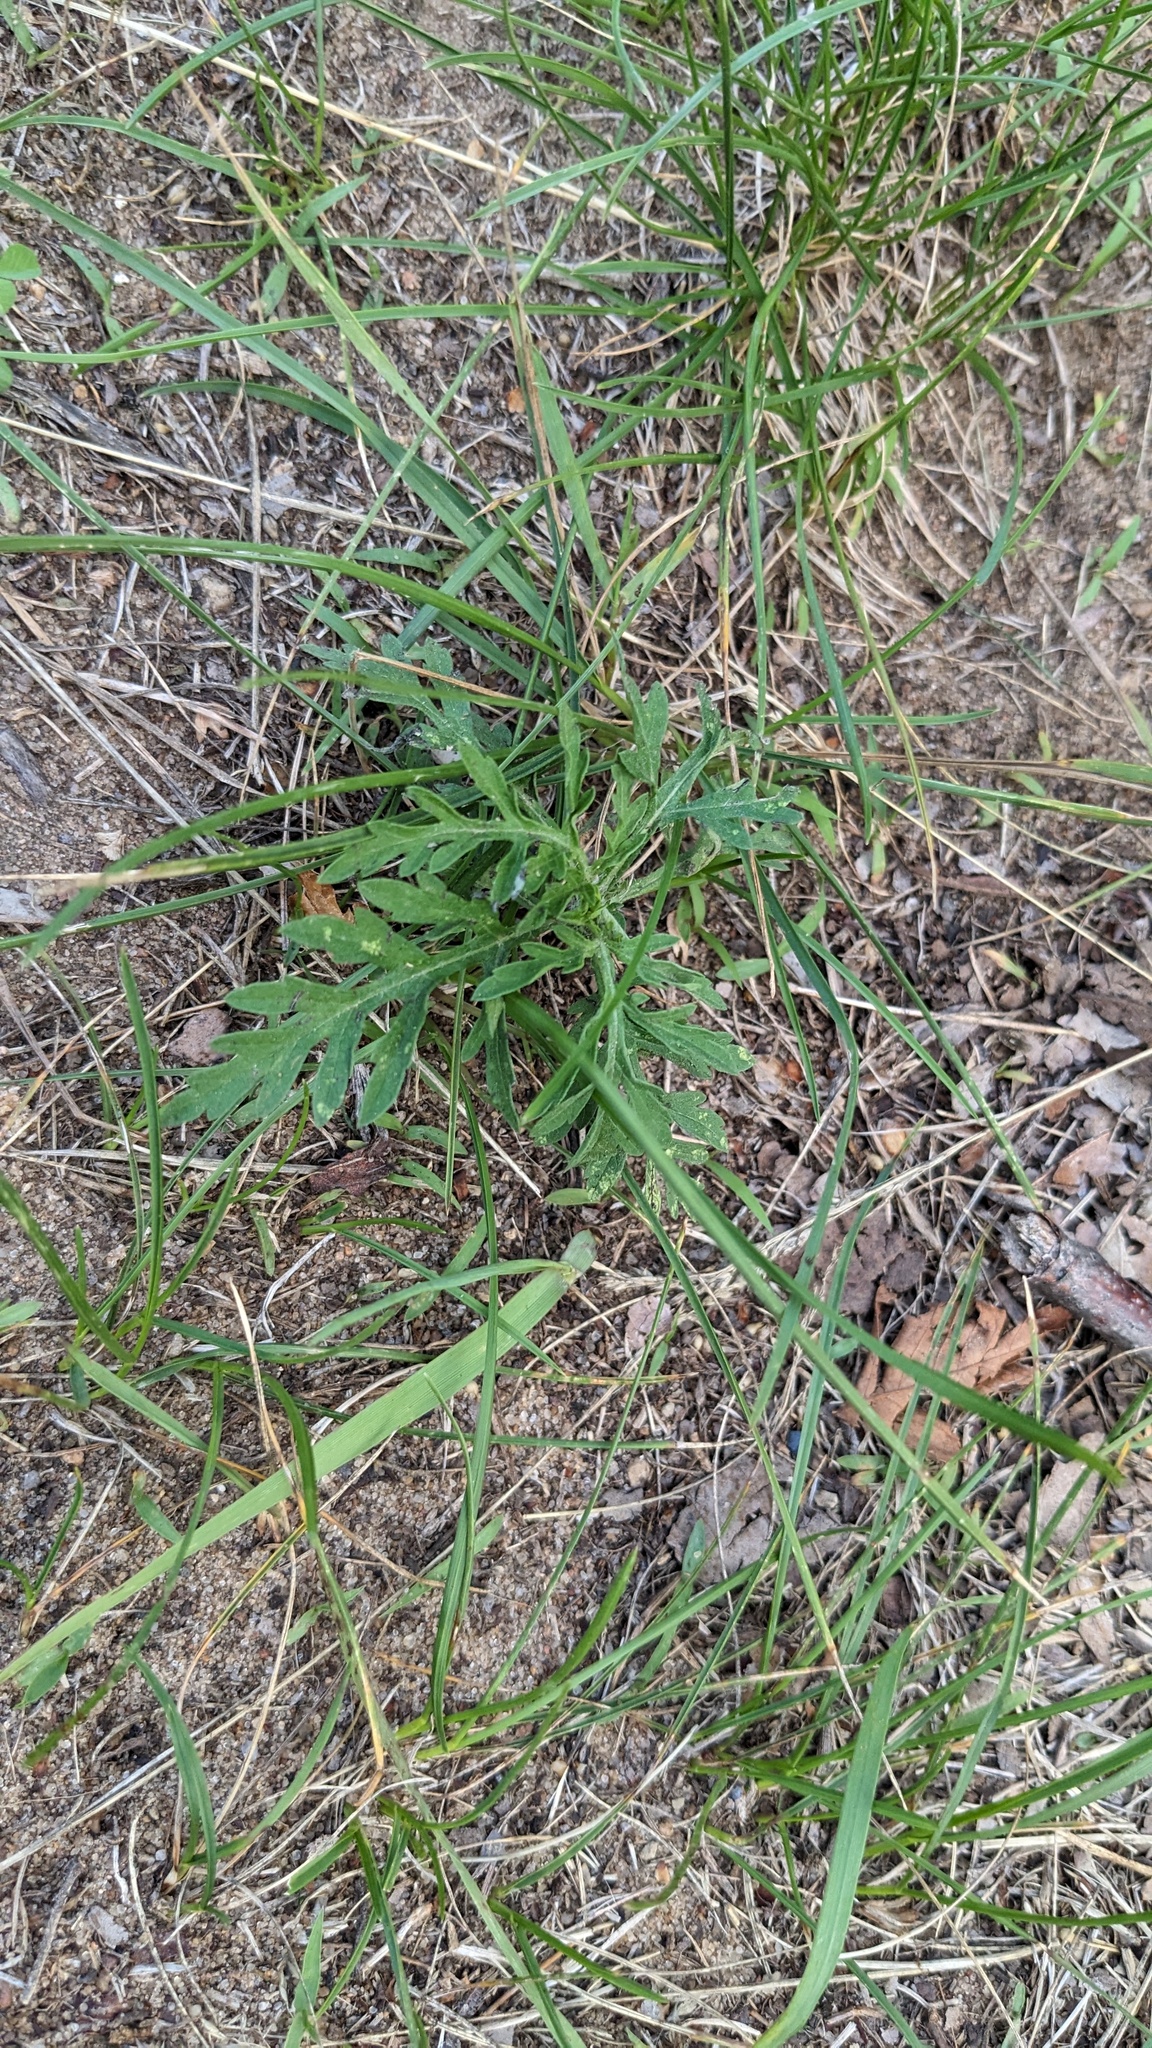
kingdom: Plantae
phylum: Tracheophyta
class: Magnoliopsida
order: Asterales
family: Asteraceae
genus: Ambrosia
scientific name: Ambrosia artemisiifolia
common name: Annual ragweed
